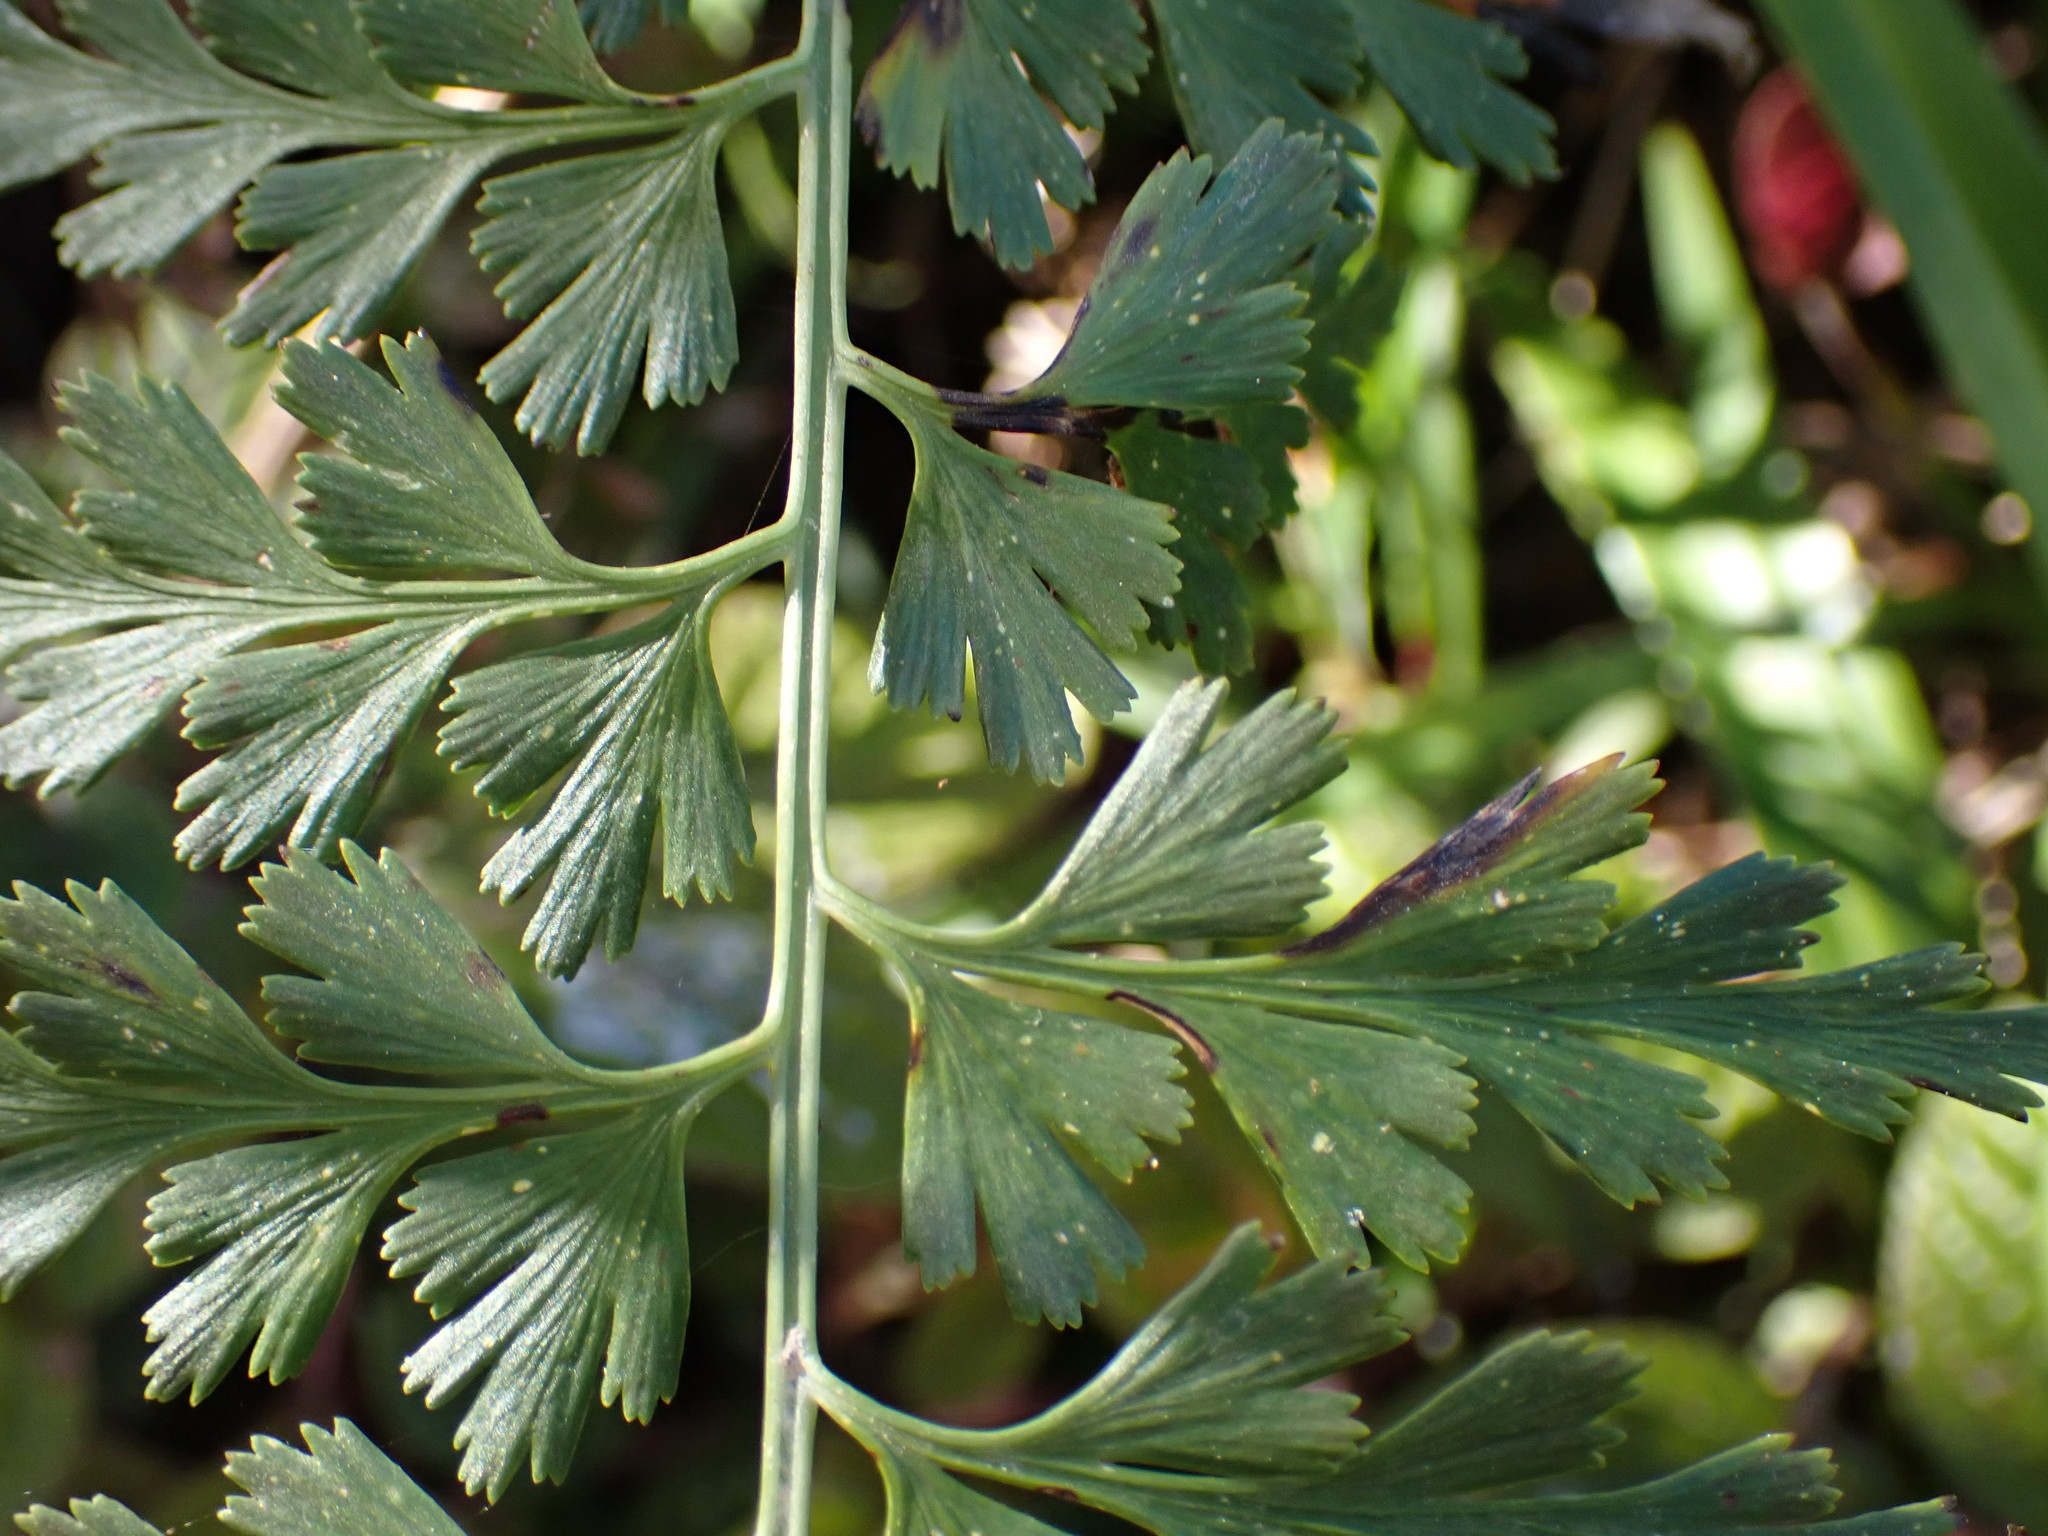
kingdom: Plantae
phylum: Tracheophyta
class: Polypodiopsida
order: Polypodiales
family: Aspleniaceae
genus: Asplenium
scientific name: Asplenium aethiopicum
